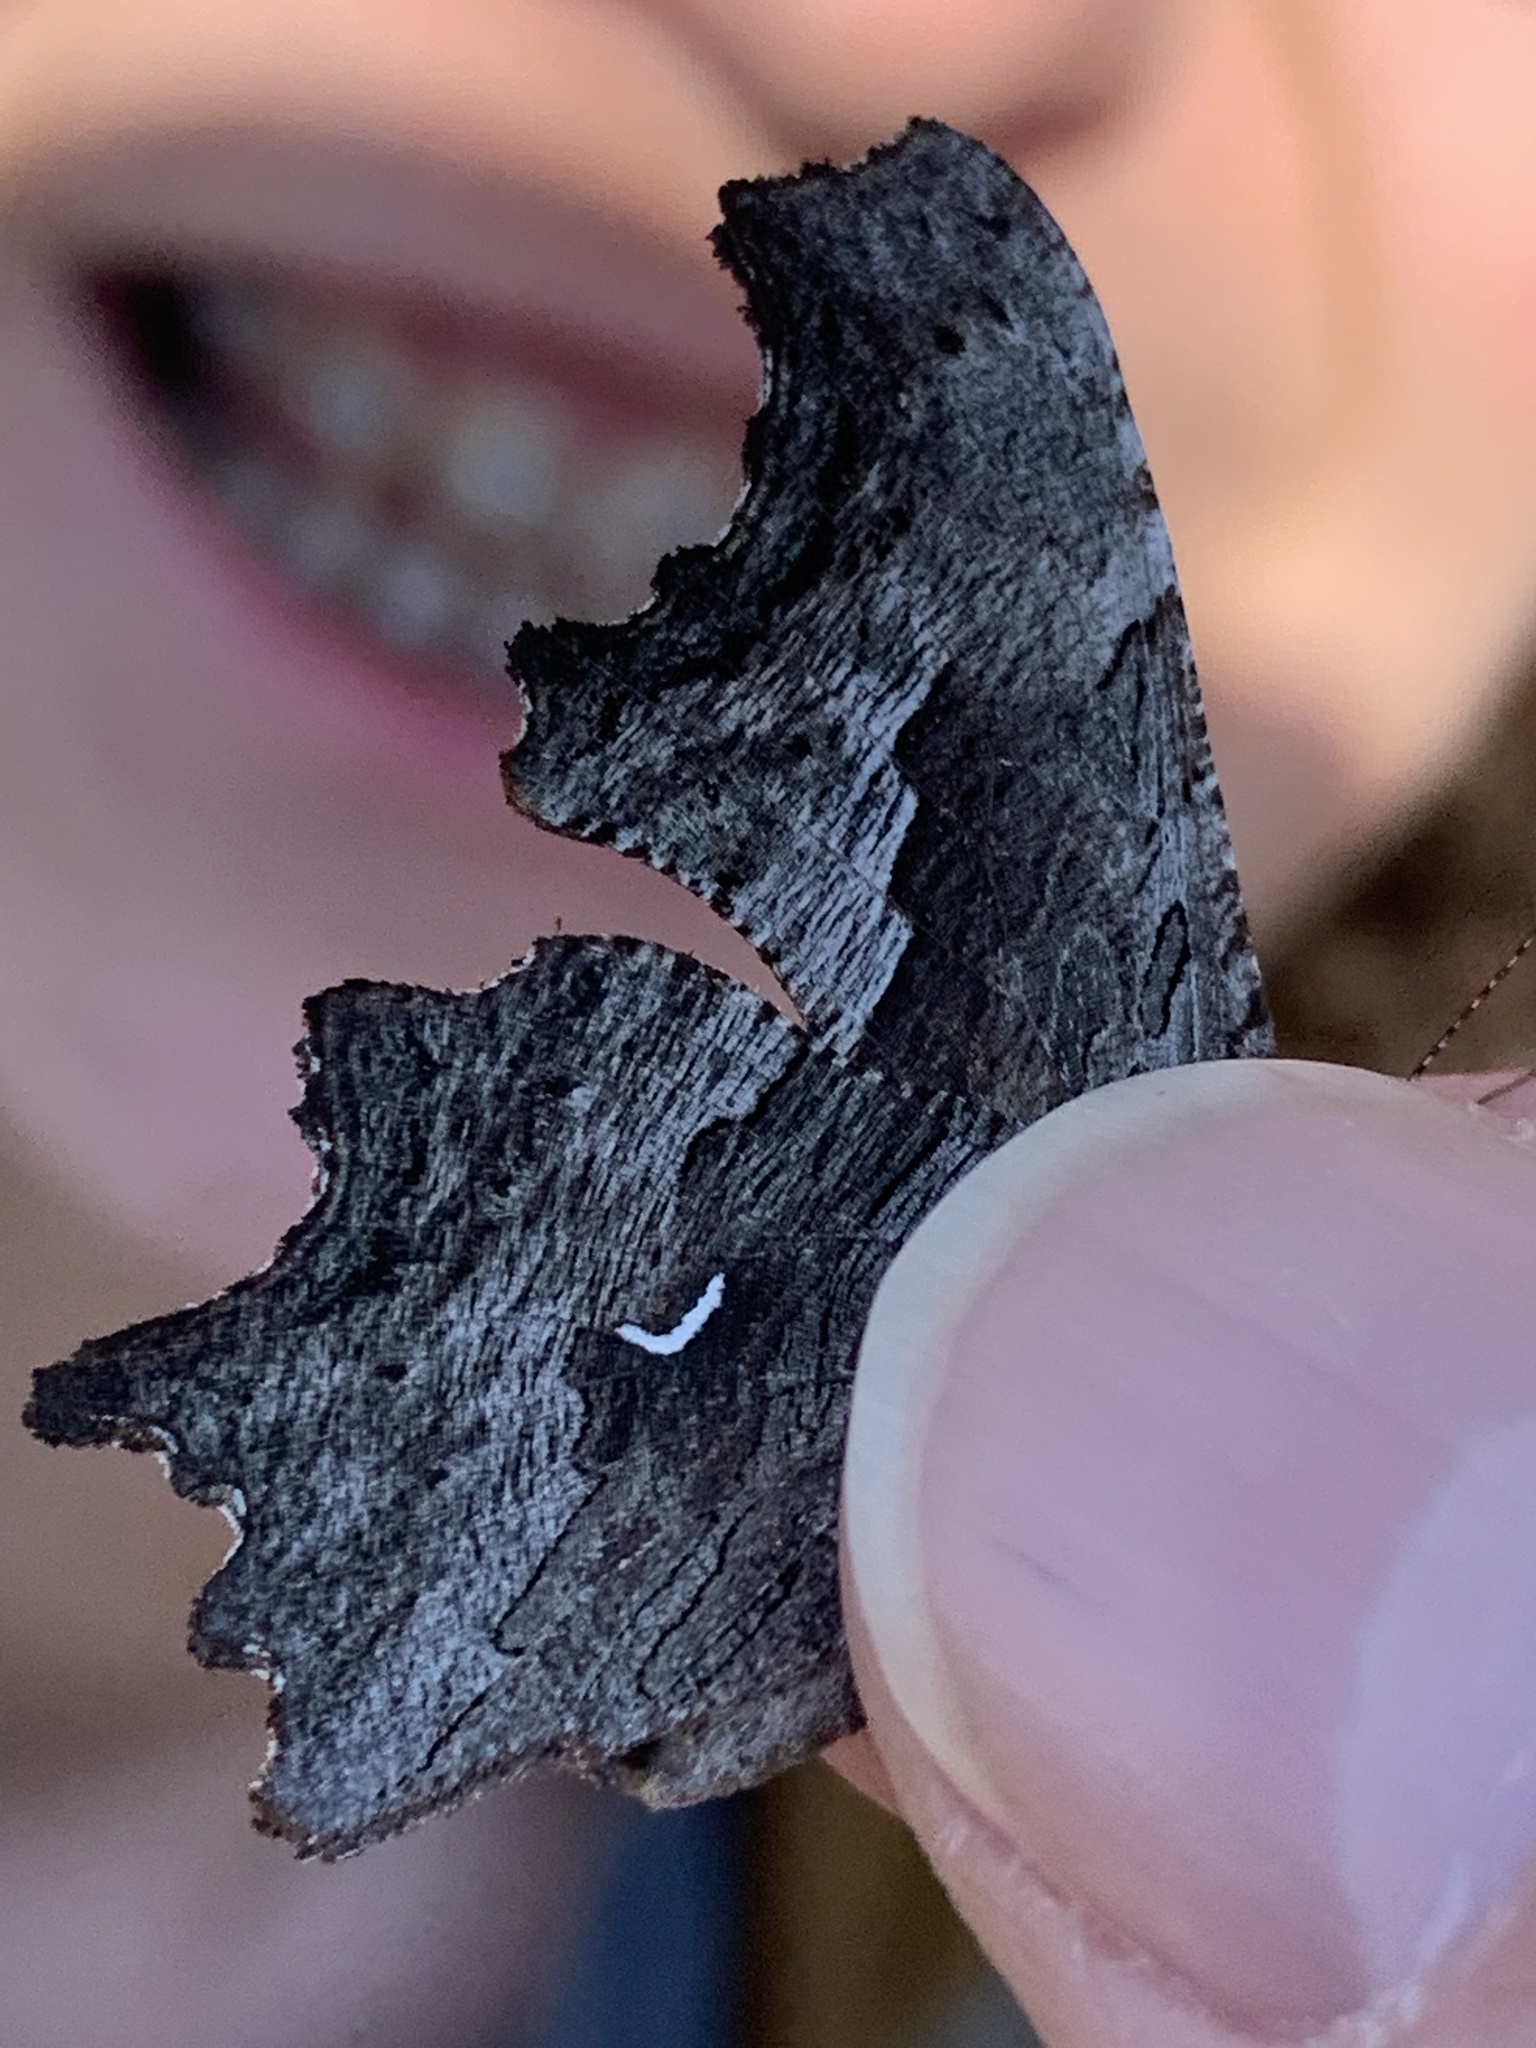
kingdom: Animalia
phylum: Arthropoda
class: Insecta
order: Lepidoptera
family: Nymphalidae
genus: Polygonia
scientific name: Polygonia gracilis
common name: Hoary comma
